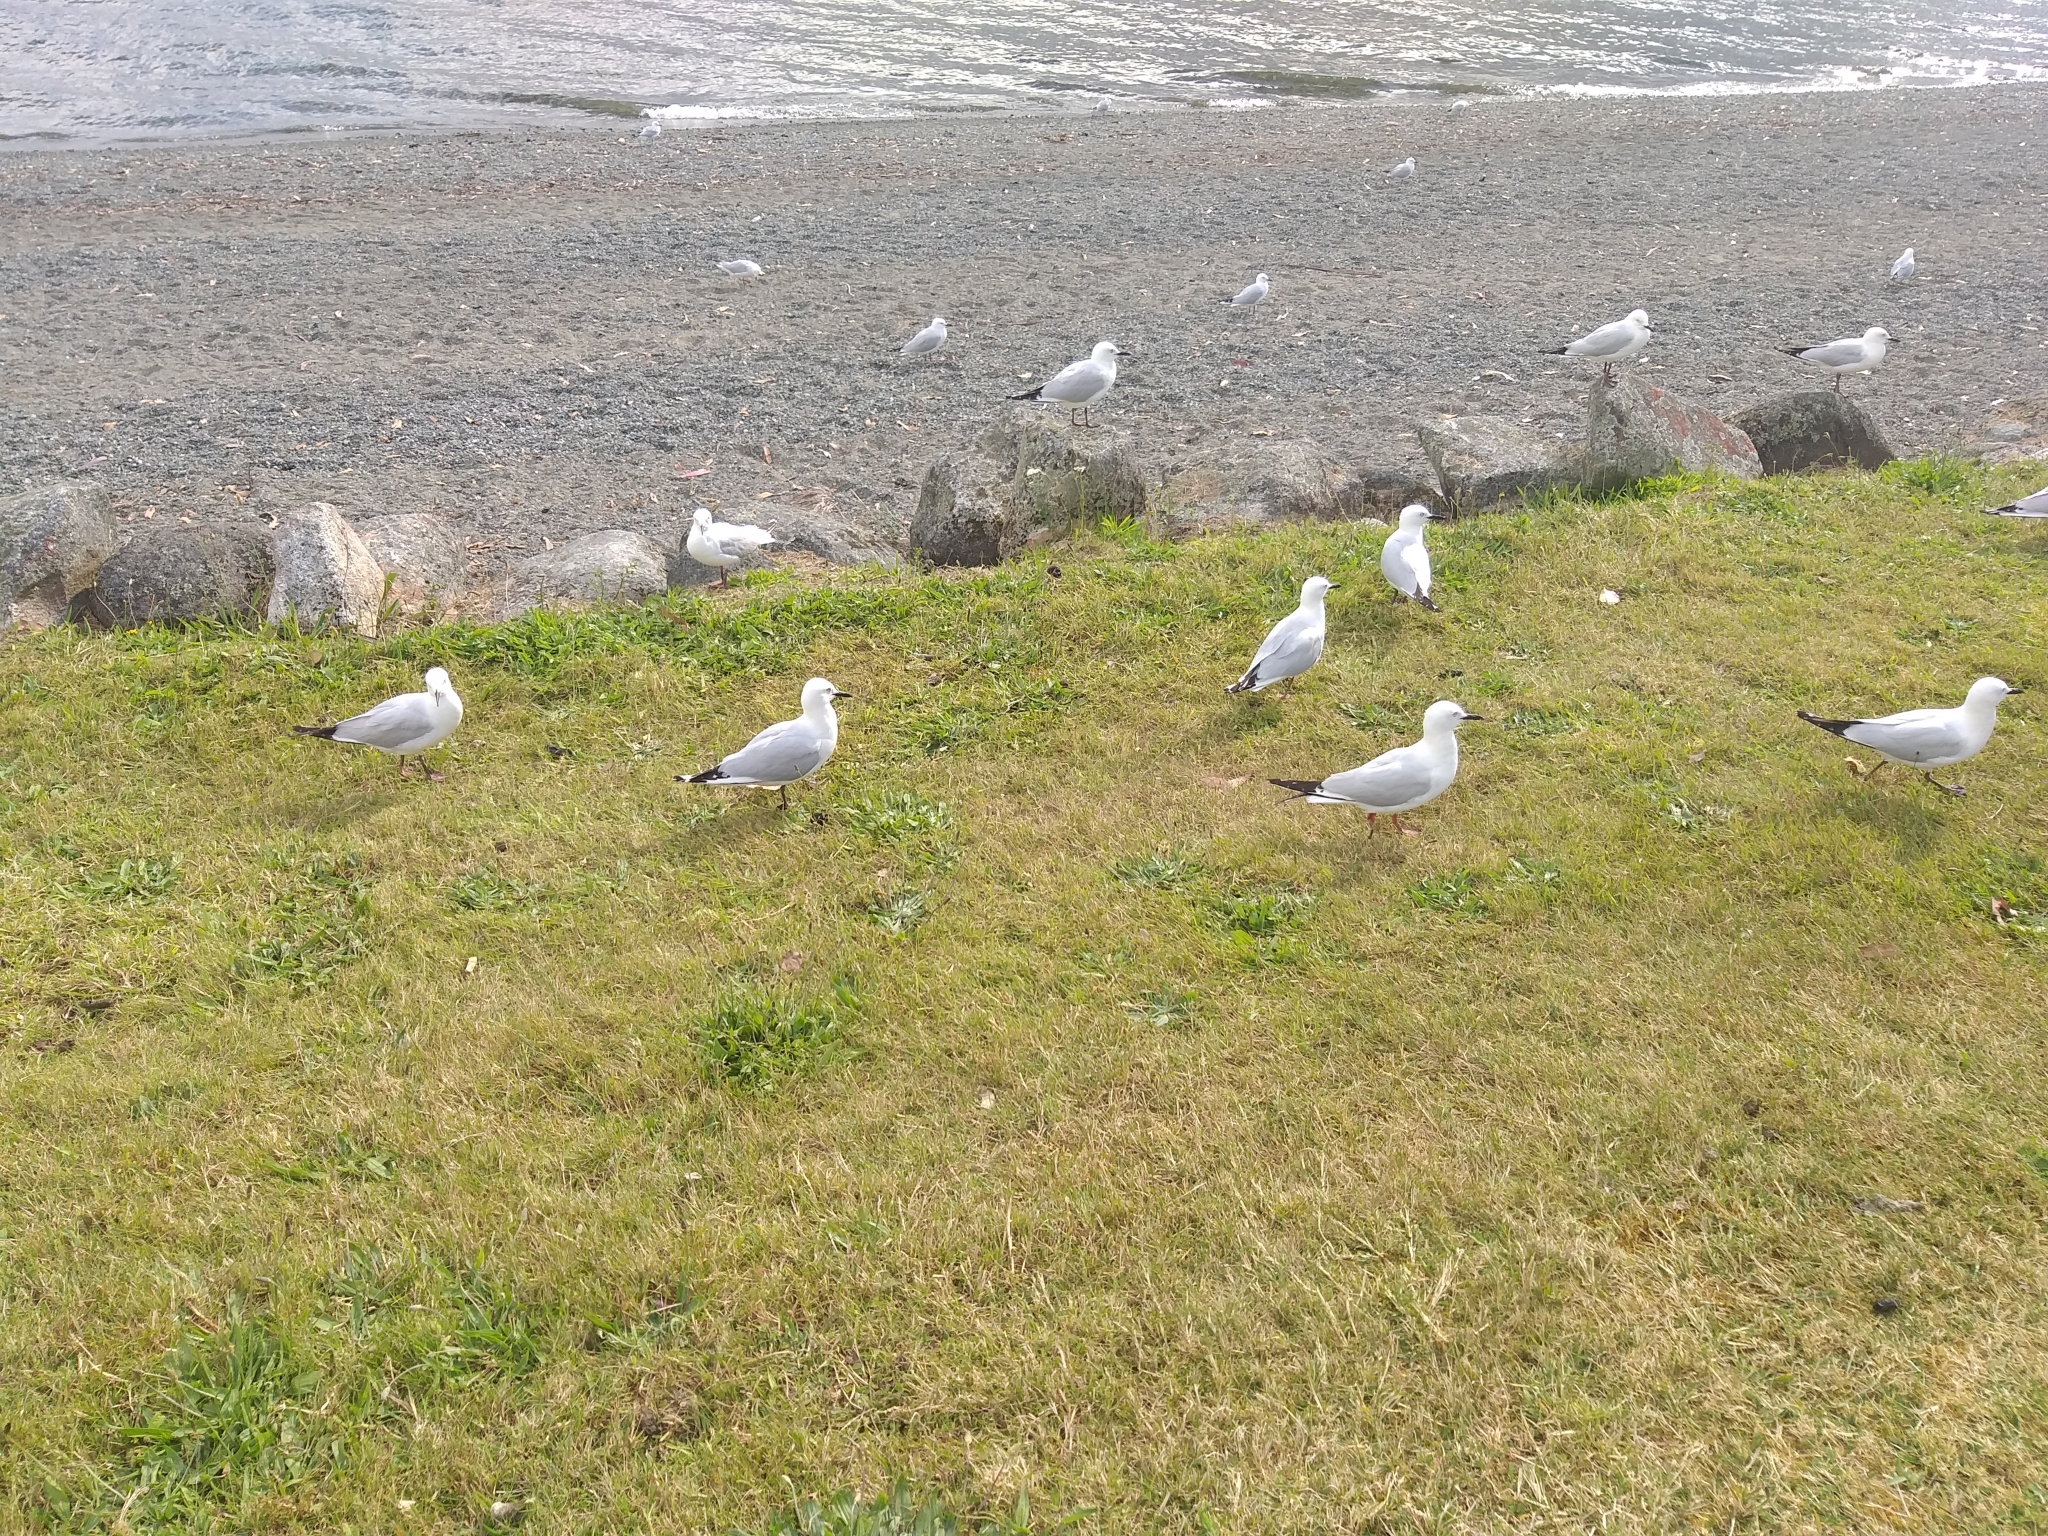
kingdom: Animalia
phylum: Chordata
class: Aves
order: Charadriiformes
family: Laridae
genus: Chroicocephalus
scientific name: Chroicocephalus bulleri
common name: Black-billed gull
